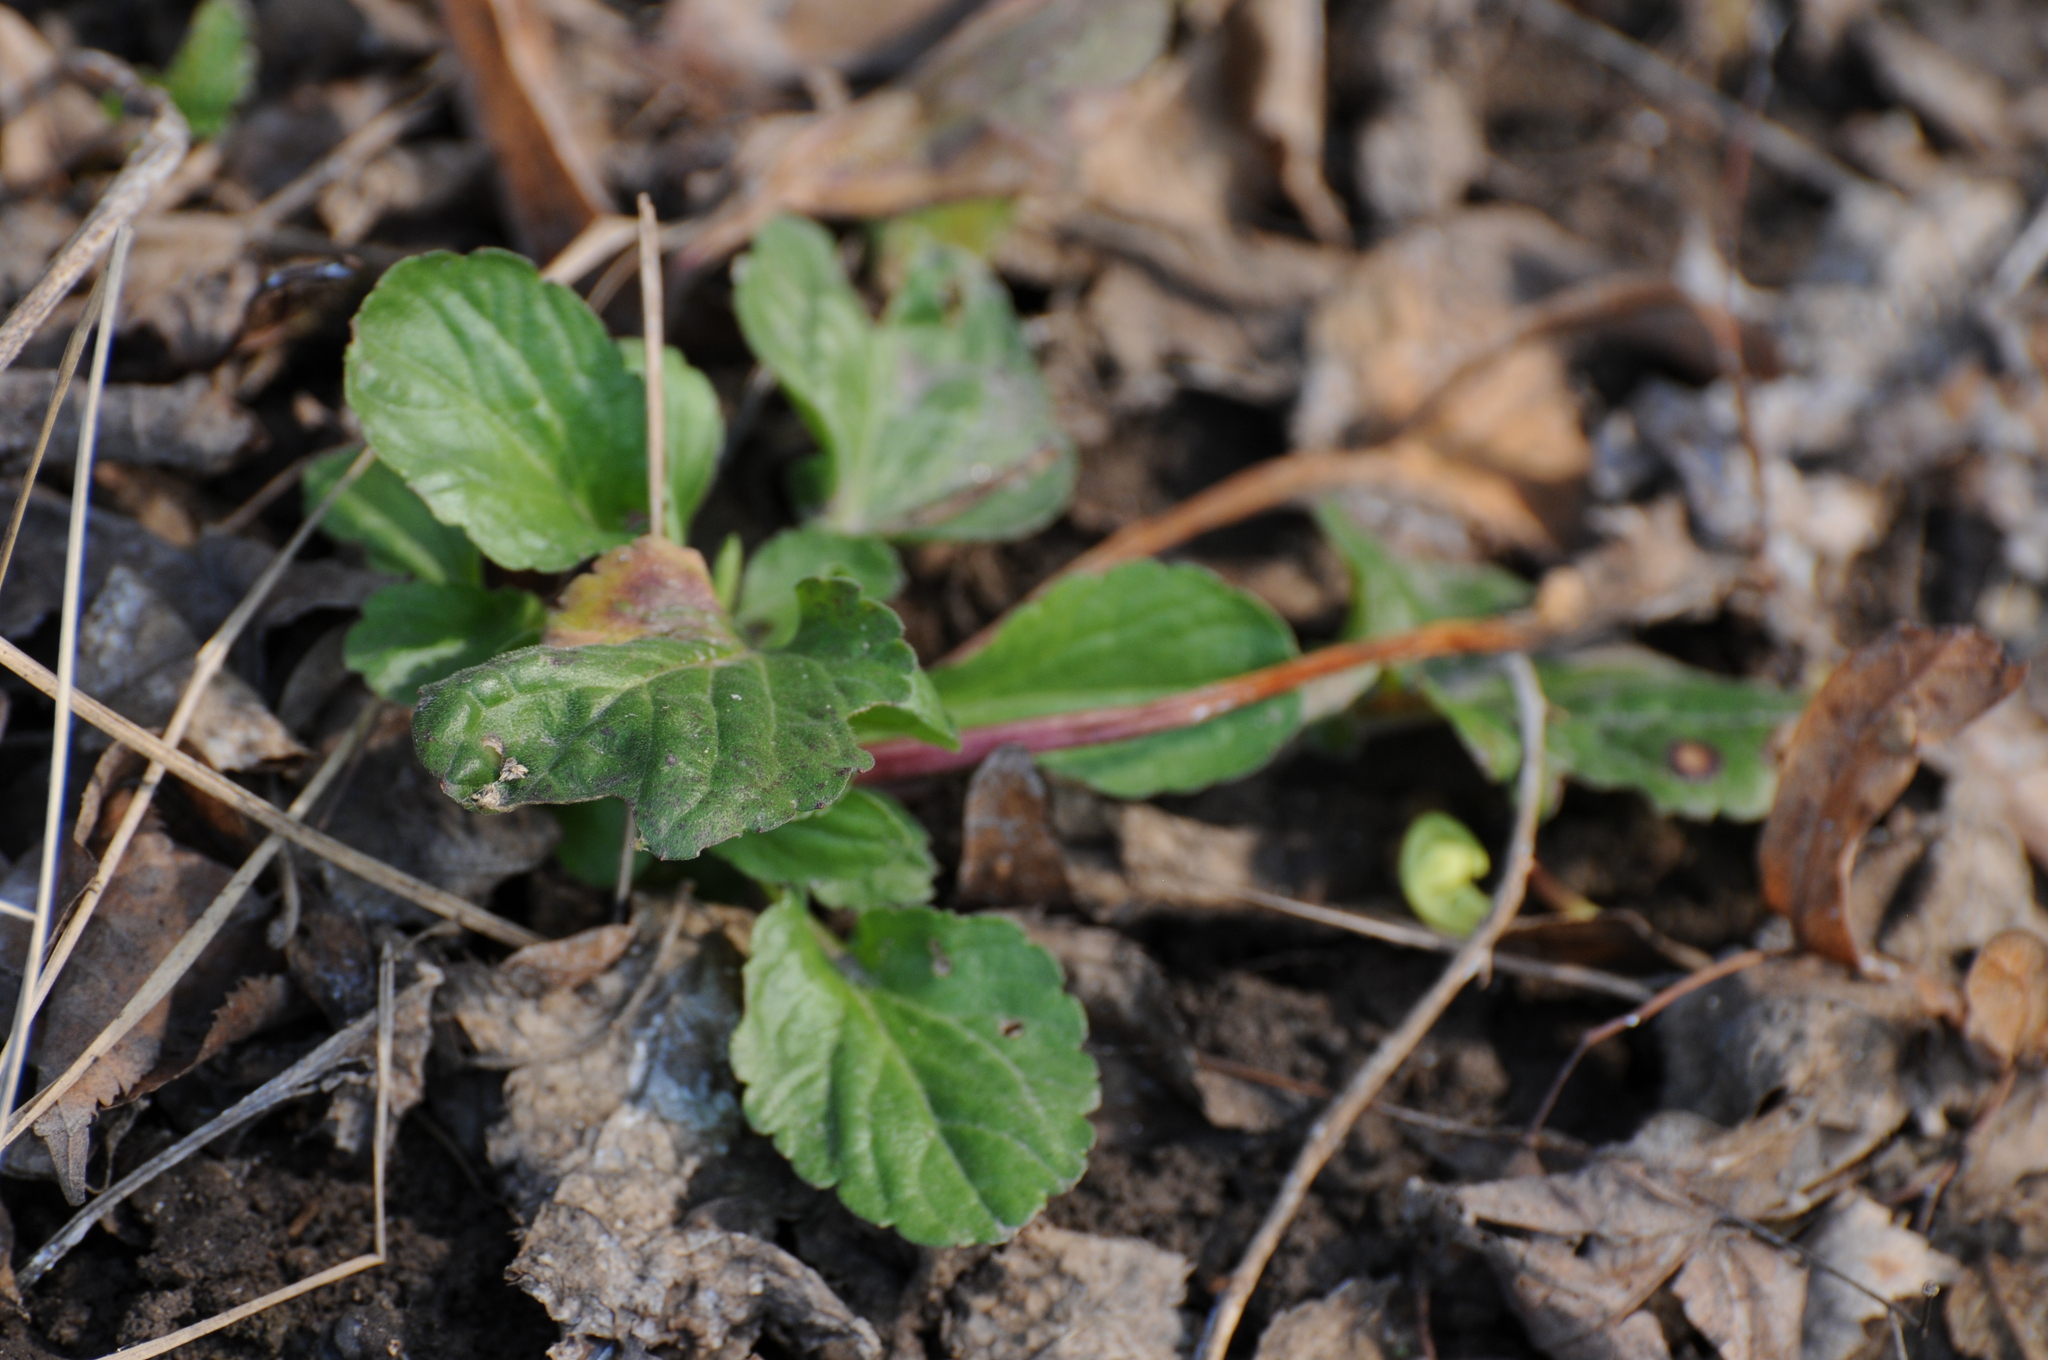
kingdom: Plantae
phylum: Tracheophyta
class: Magnoliopsida
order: Lamiales
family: Lamiaceae
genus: Ajuga
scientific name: Ajuga reptans
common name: Bugle
